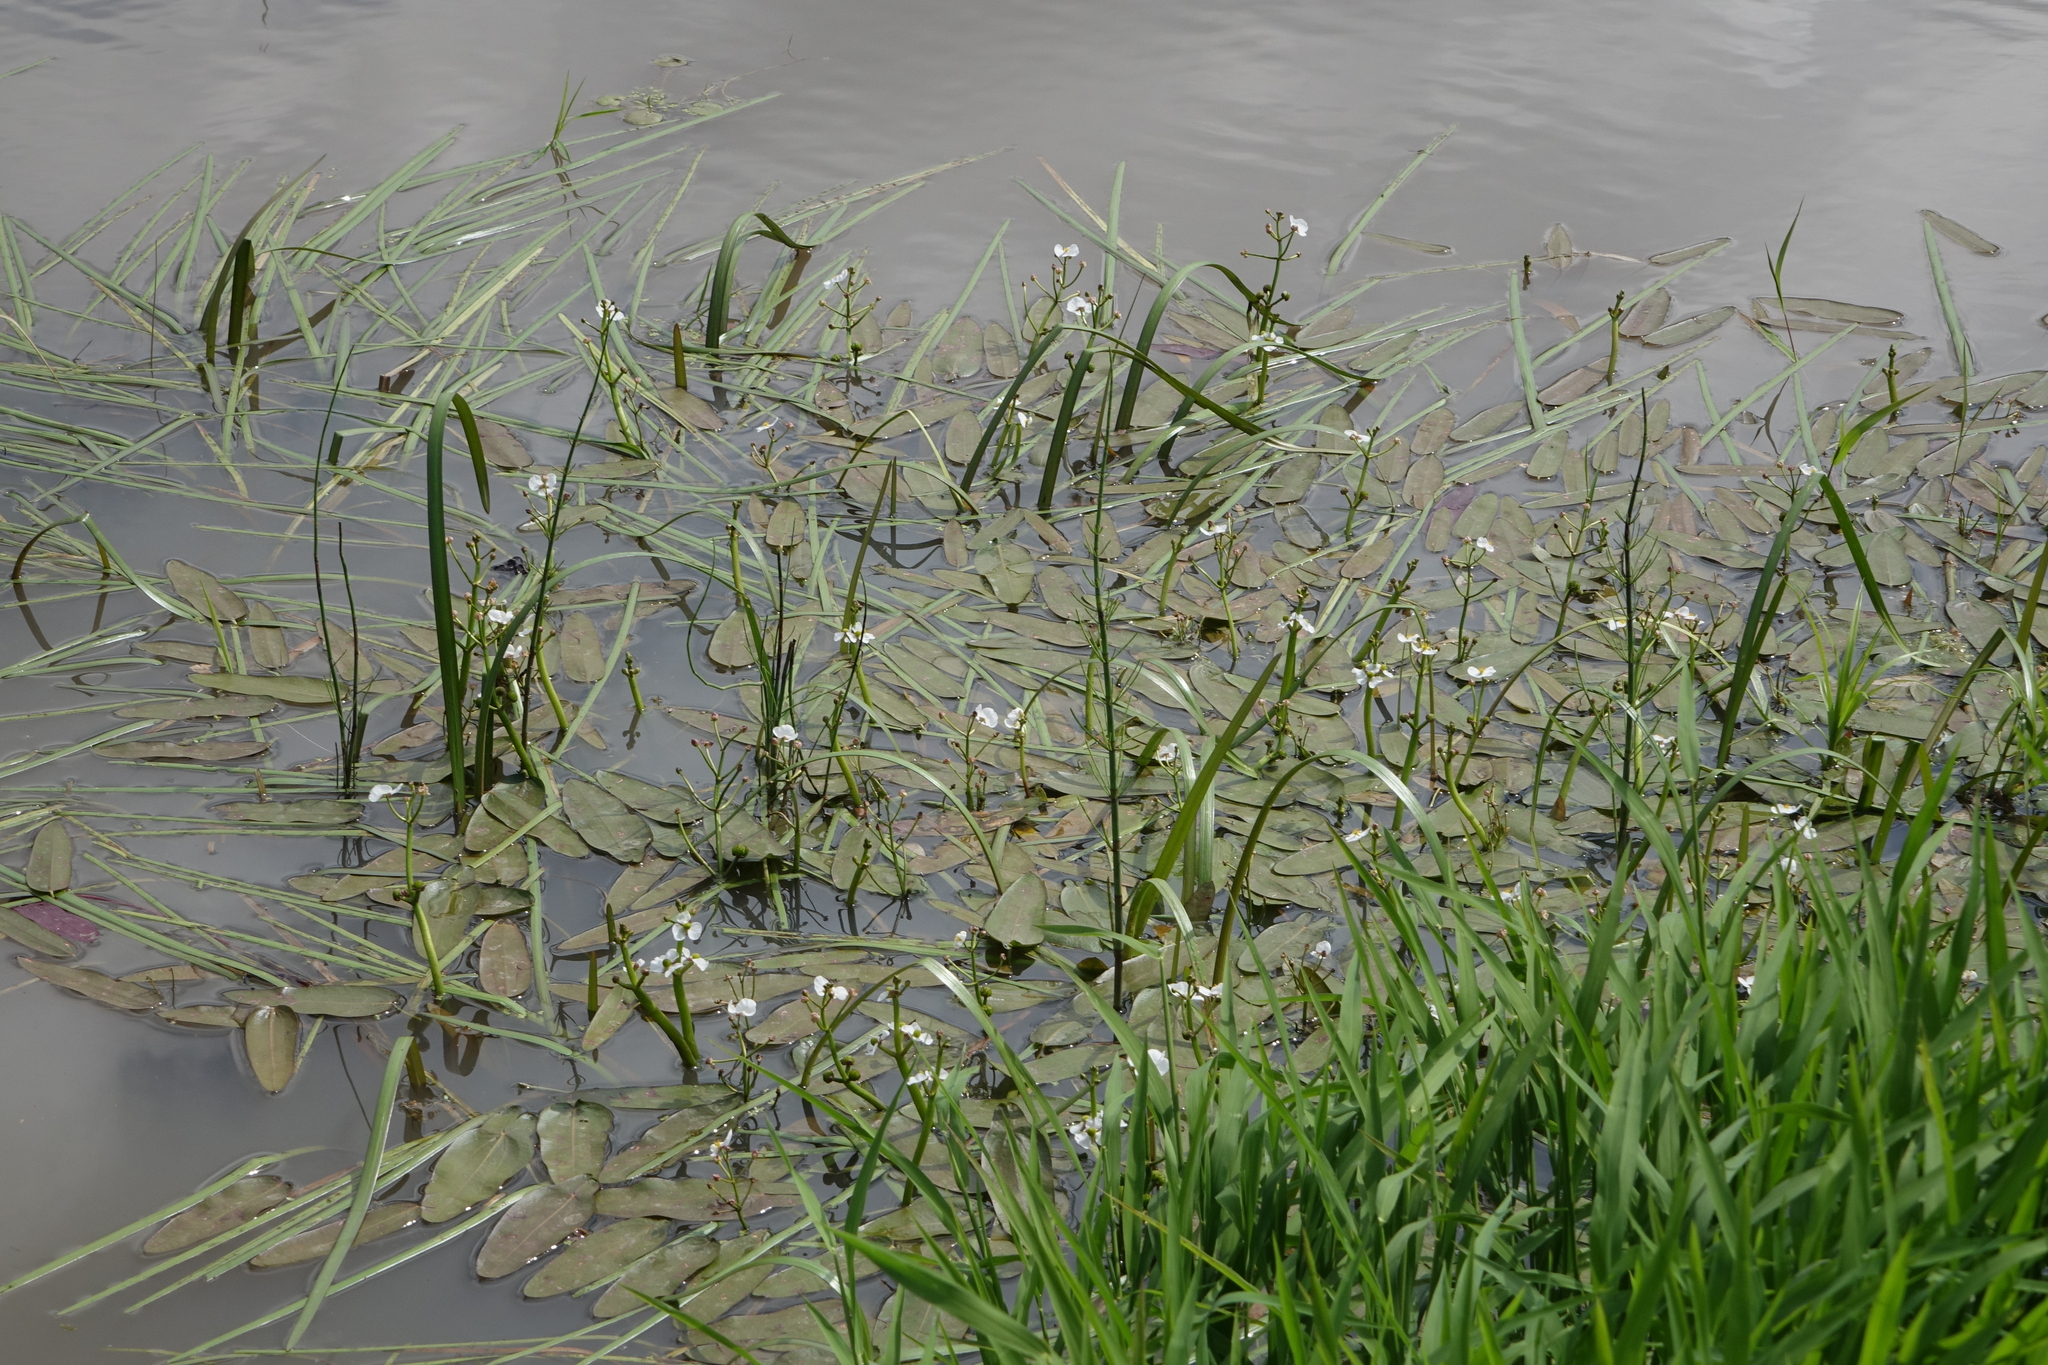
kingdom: Plantae
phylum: Tracheophyta
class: Liliopsida
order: Alismatales
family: Alismataceae
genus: Sagittaria
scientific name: Sagittaria natans
